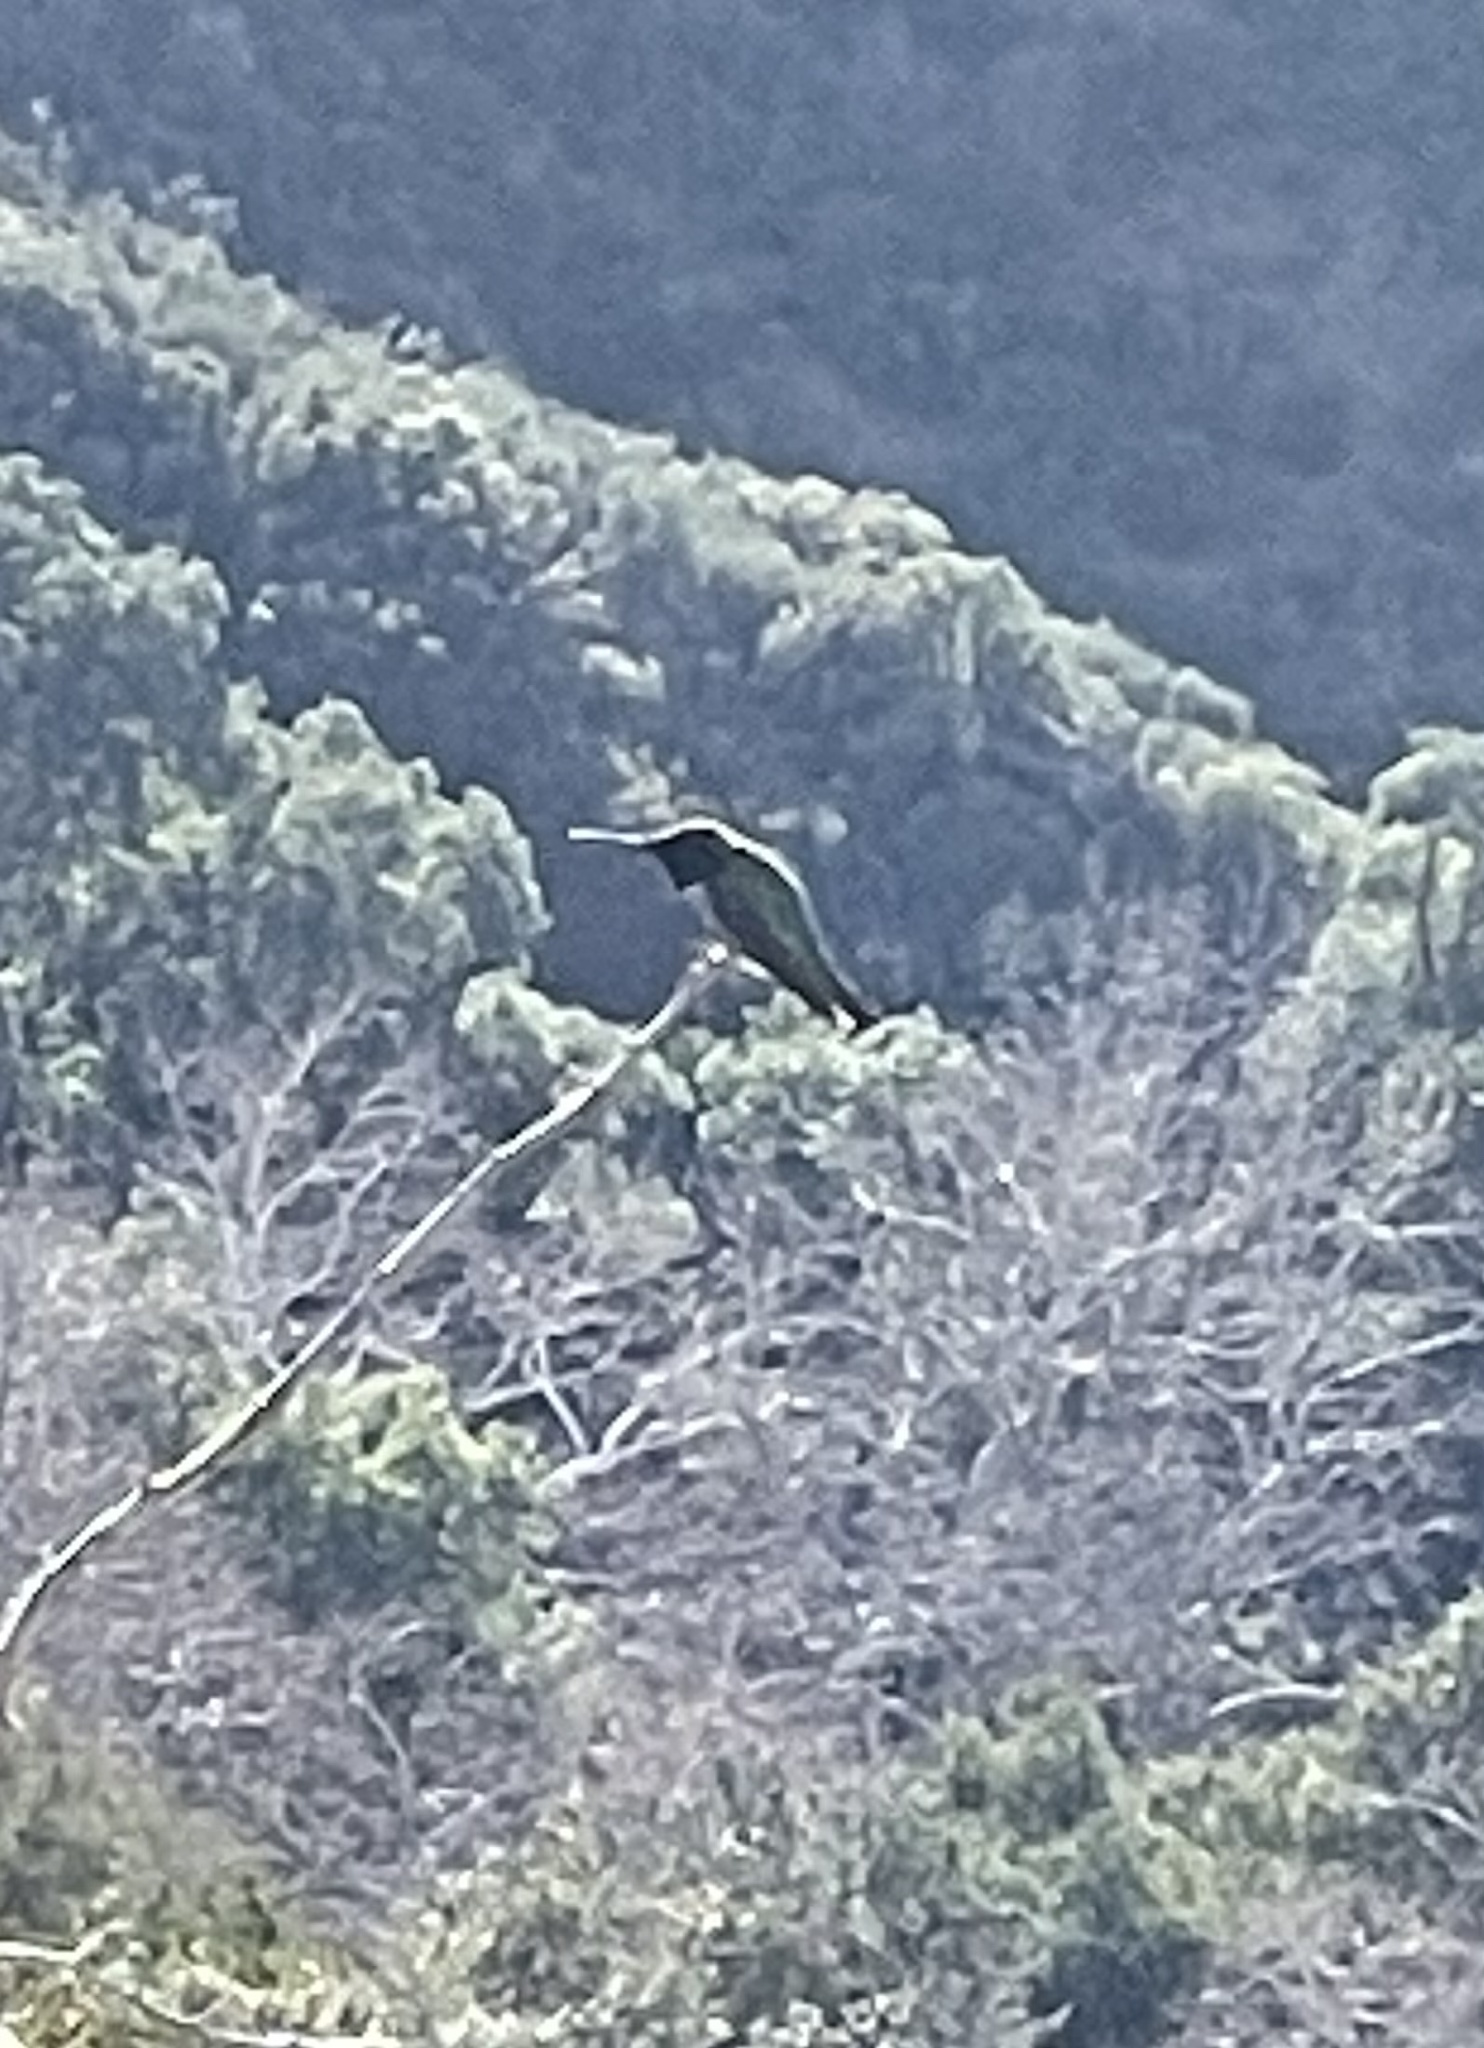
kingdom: Animalia
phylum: Chordata
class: Aves
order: Apodiformes
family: Trochilidae
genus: Calypte
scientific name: Calypte anna
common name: Anna's hummingbird
